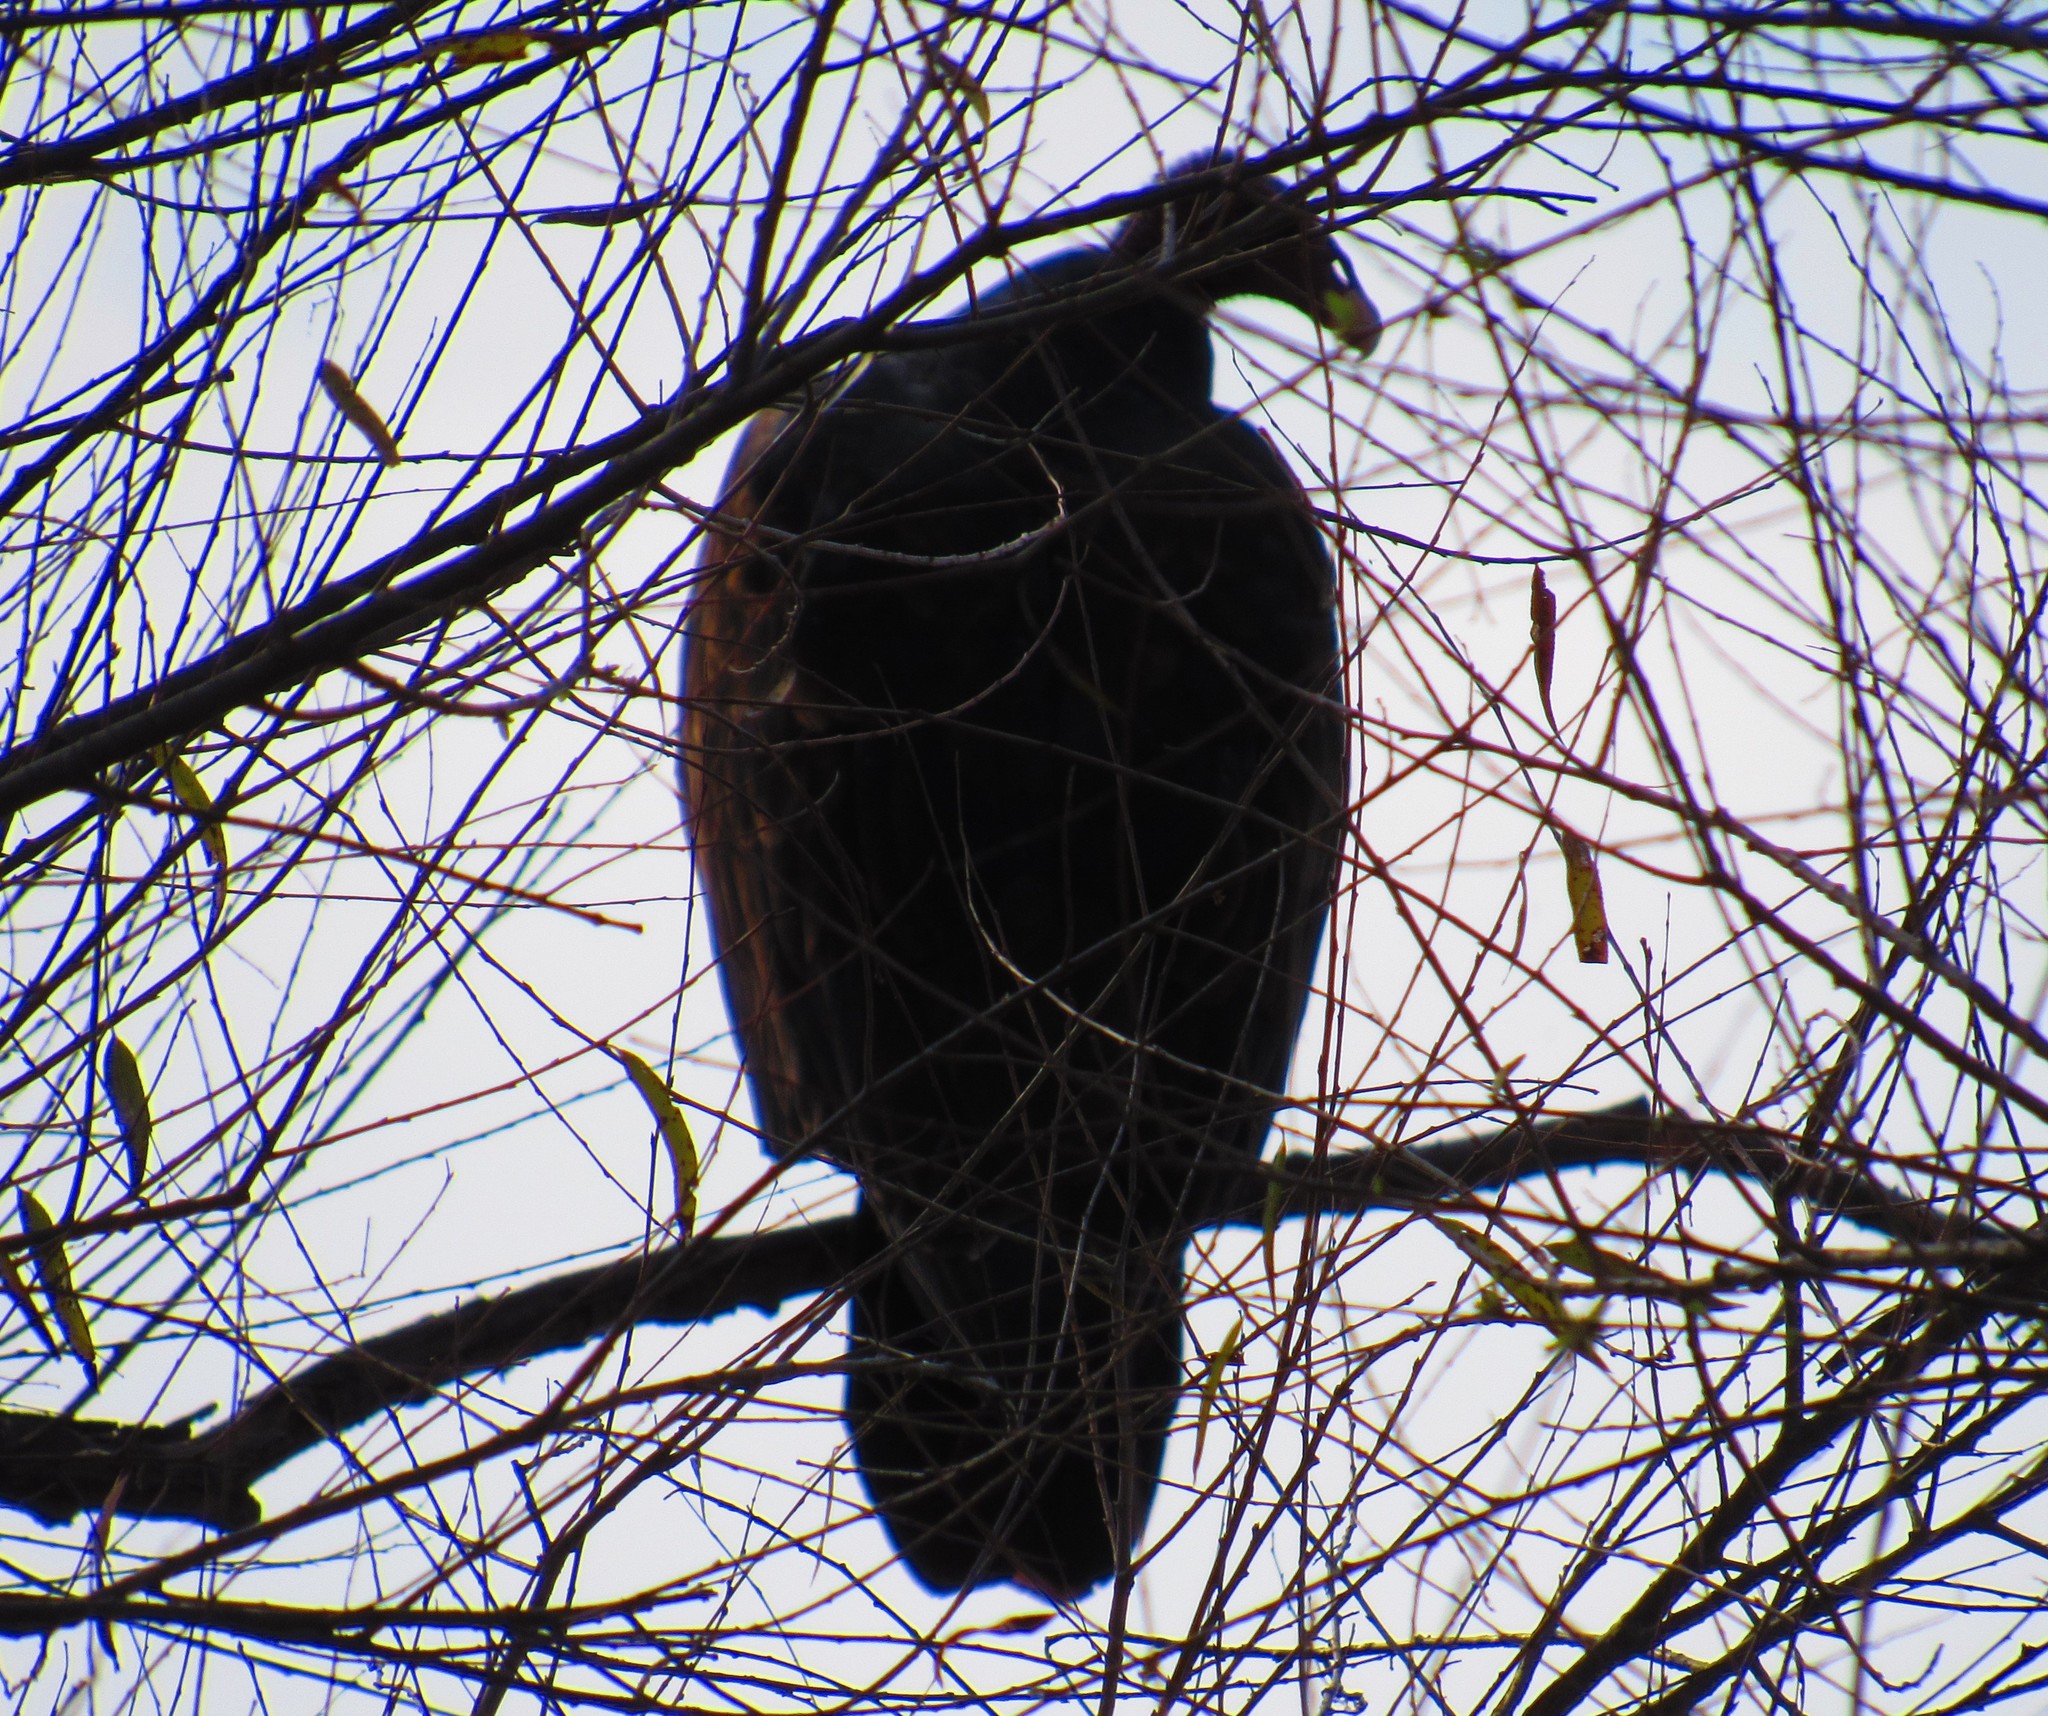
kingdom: Animalia
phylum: Chordata
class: Aves
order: Accipitriformes
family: Cathartidae
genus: Cathartes
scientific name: Cathartes aura
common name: Turkey vulture
